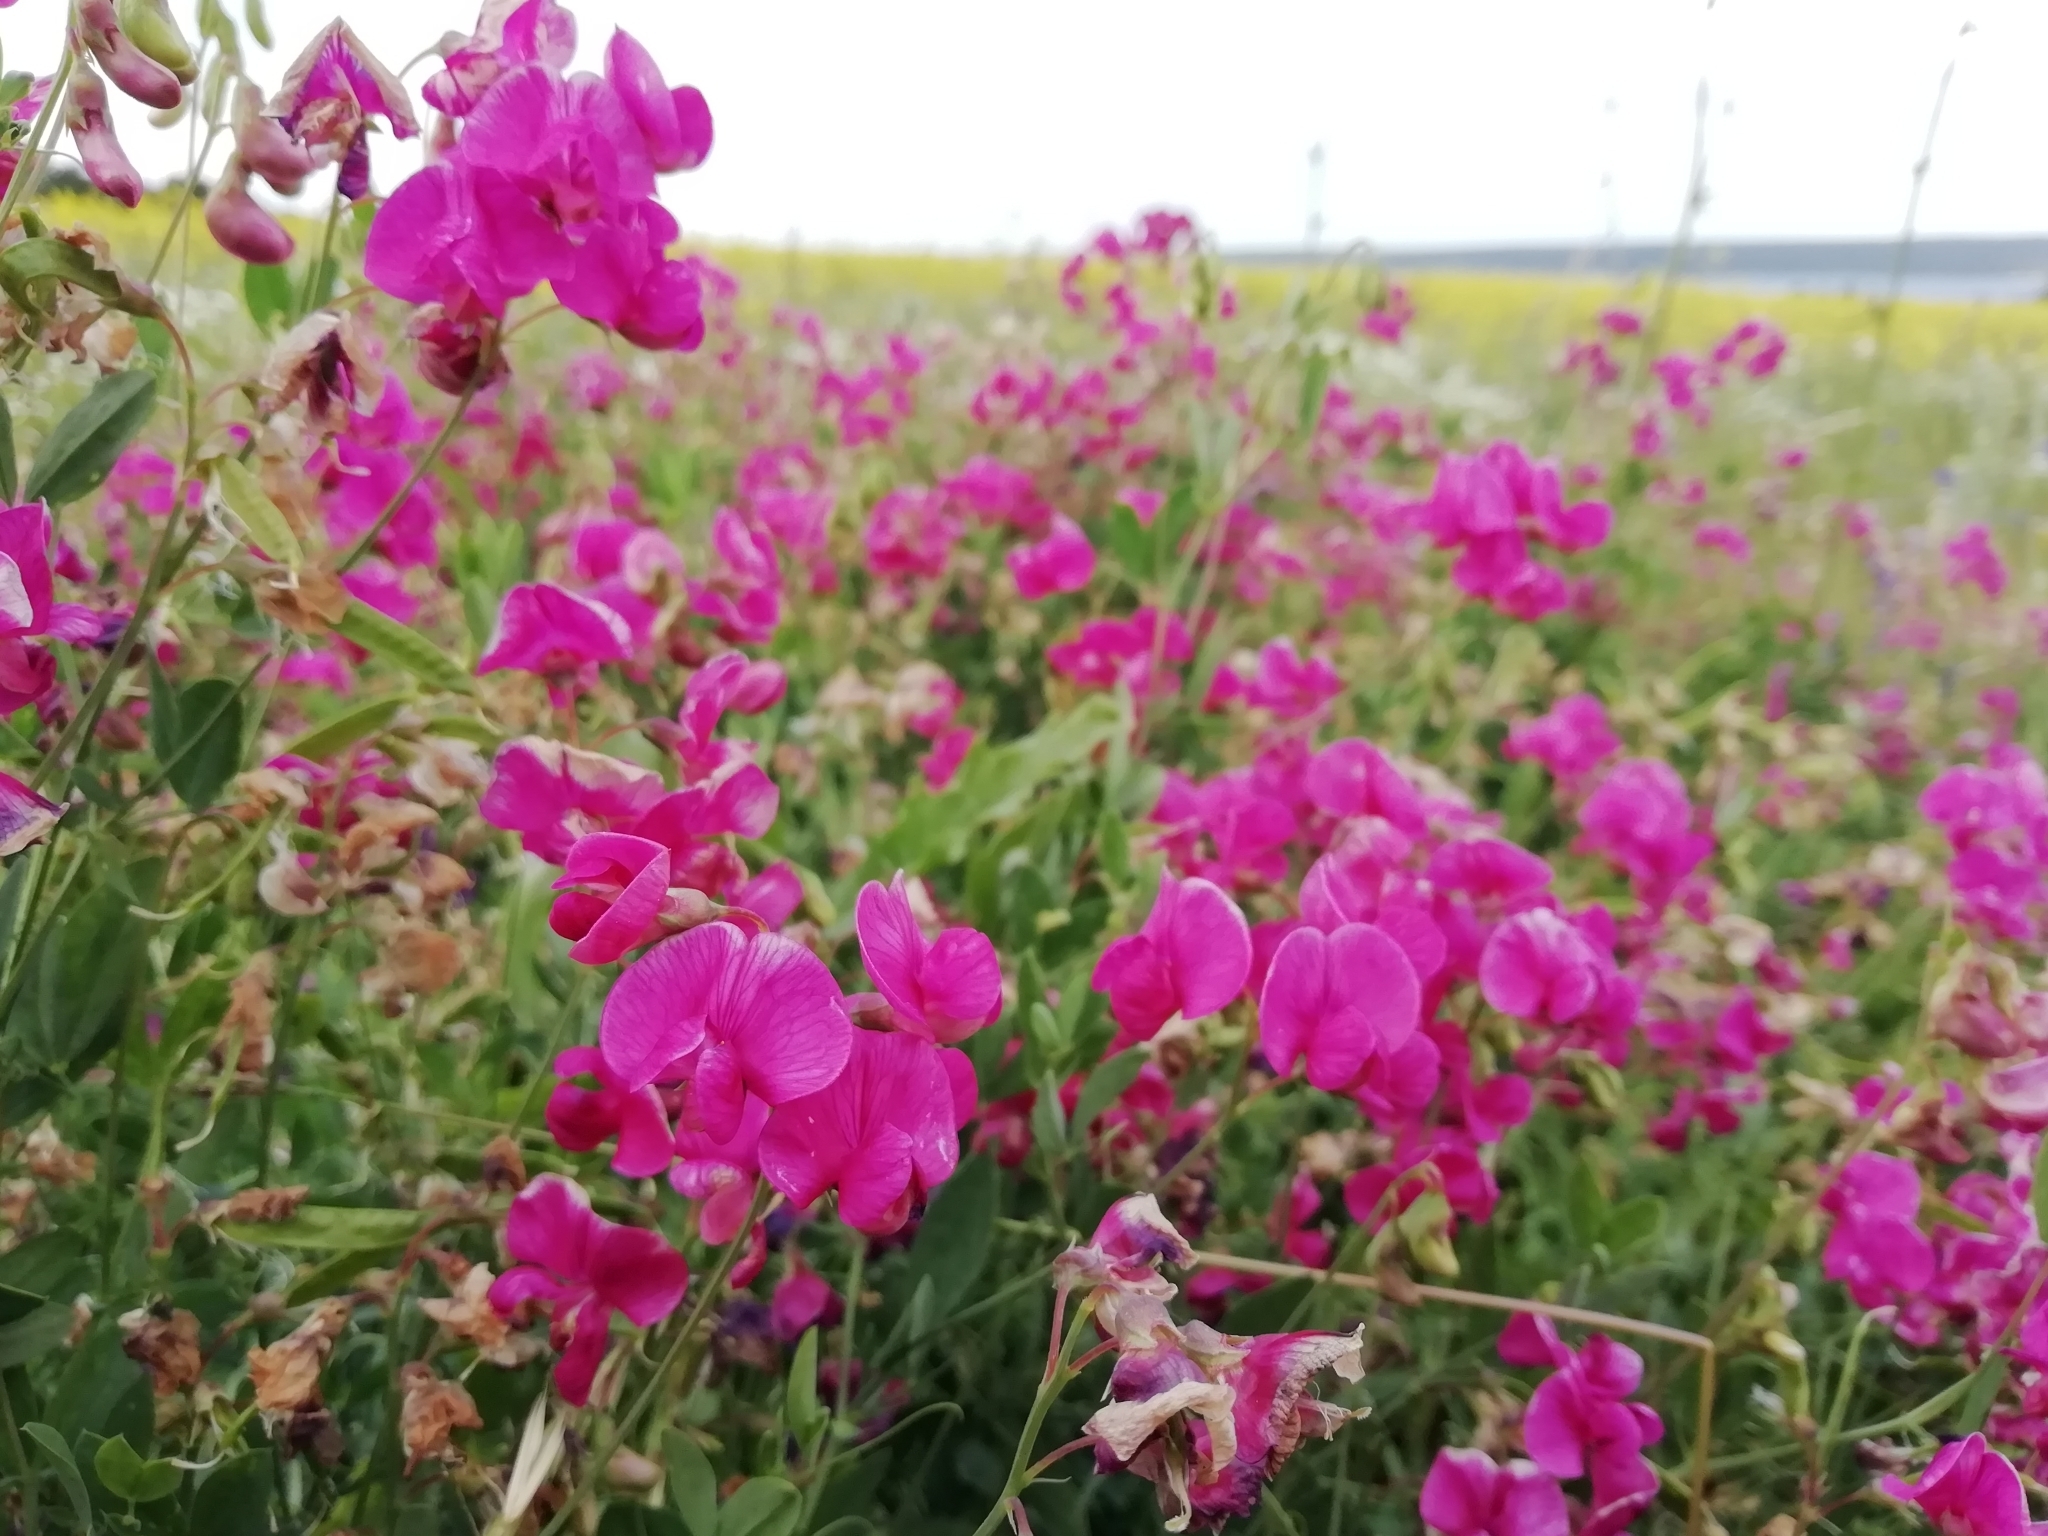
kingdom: Plantae
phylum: Tracheophyta
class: Magnoliopsida
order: Fabales
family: Fabaceae
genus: Lathyrus
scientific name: Lathyrus tuberosus
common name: Tuberous pea
